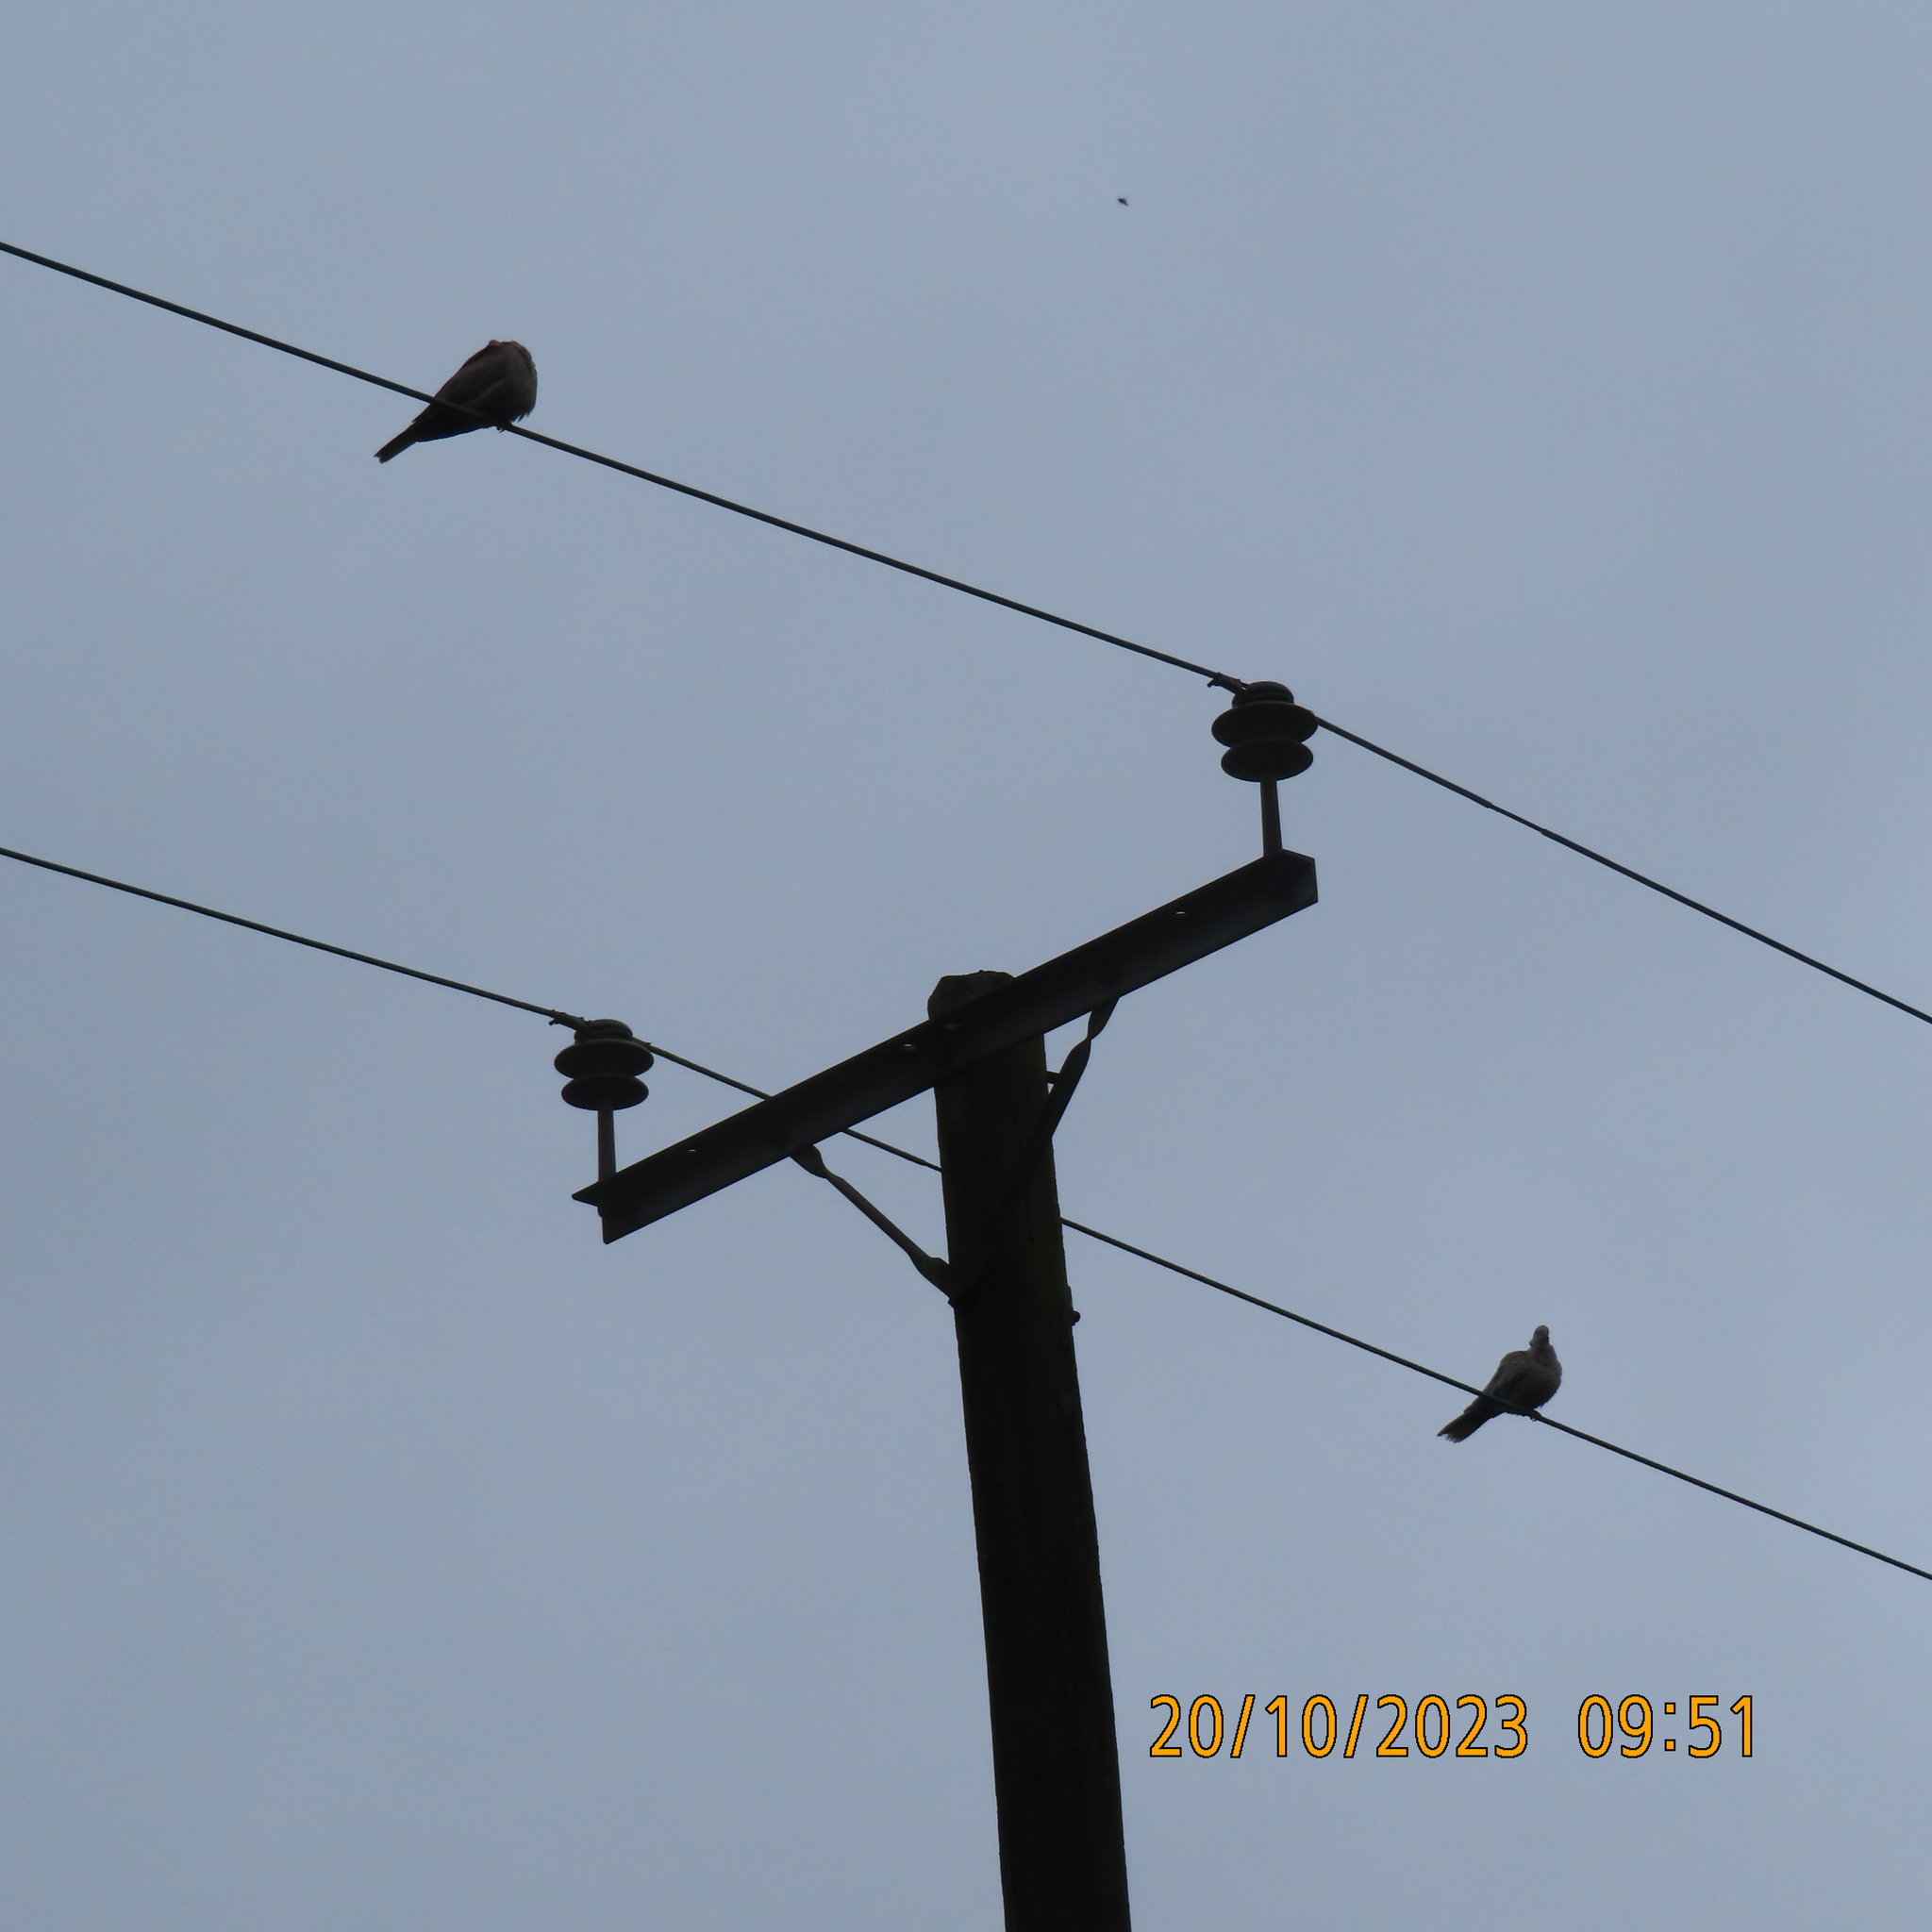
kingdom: Animalia
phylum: Chordata
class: Aves
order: Columbiformes
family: Columbidae
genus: Streptopelia
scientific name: Streptopelia decaocto
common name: Eurasian collared dove
